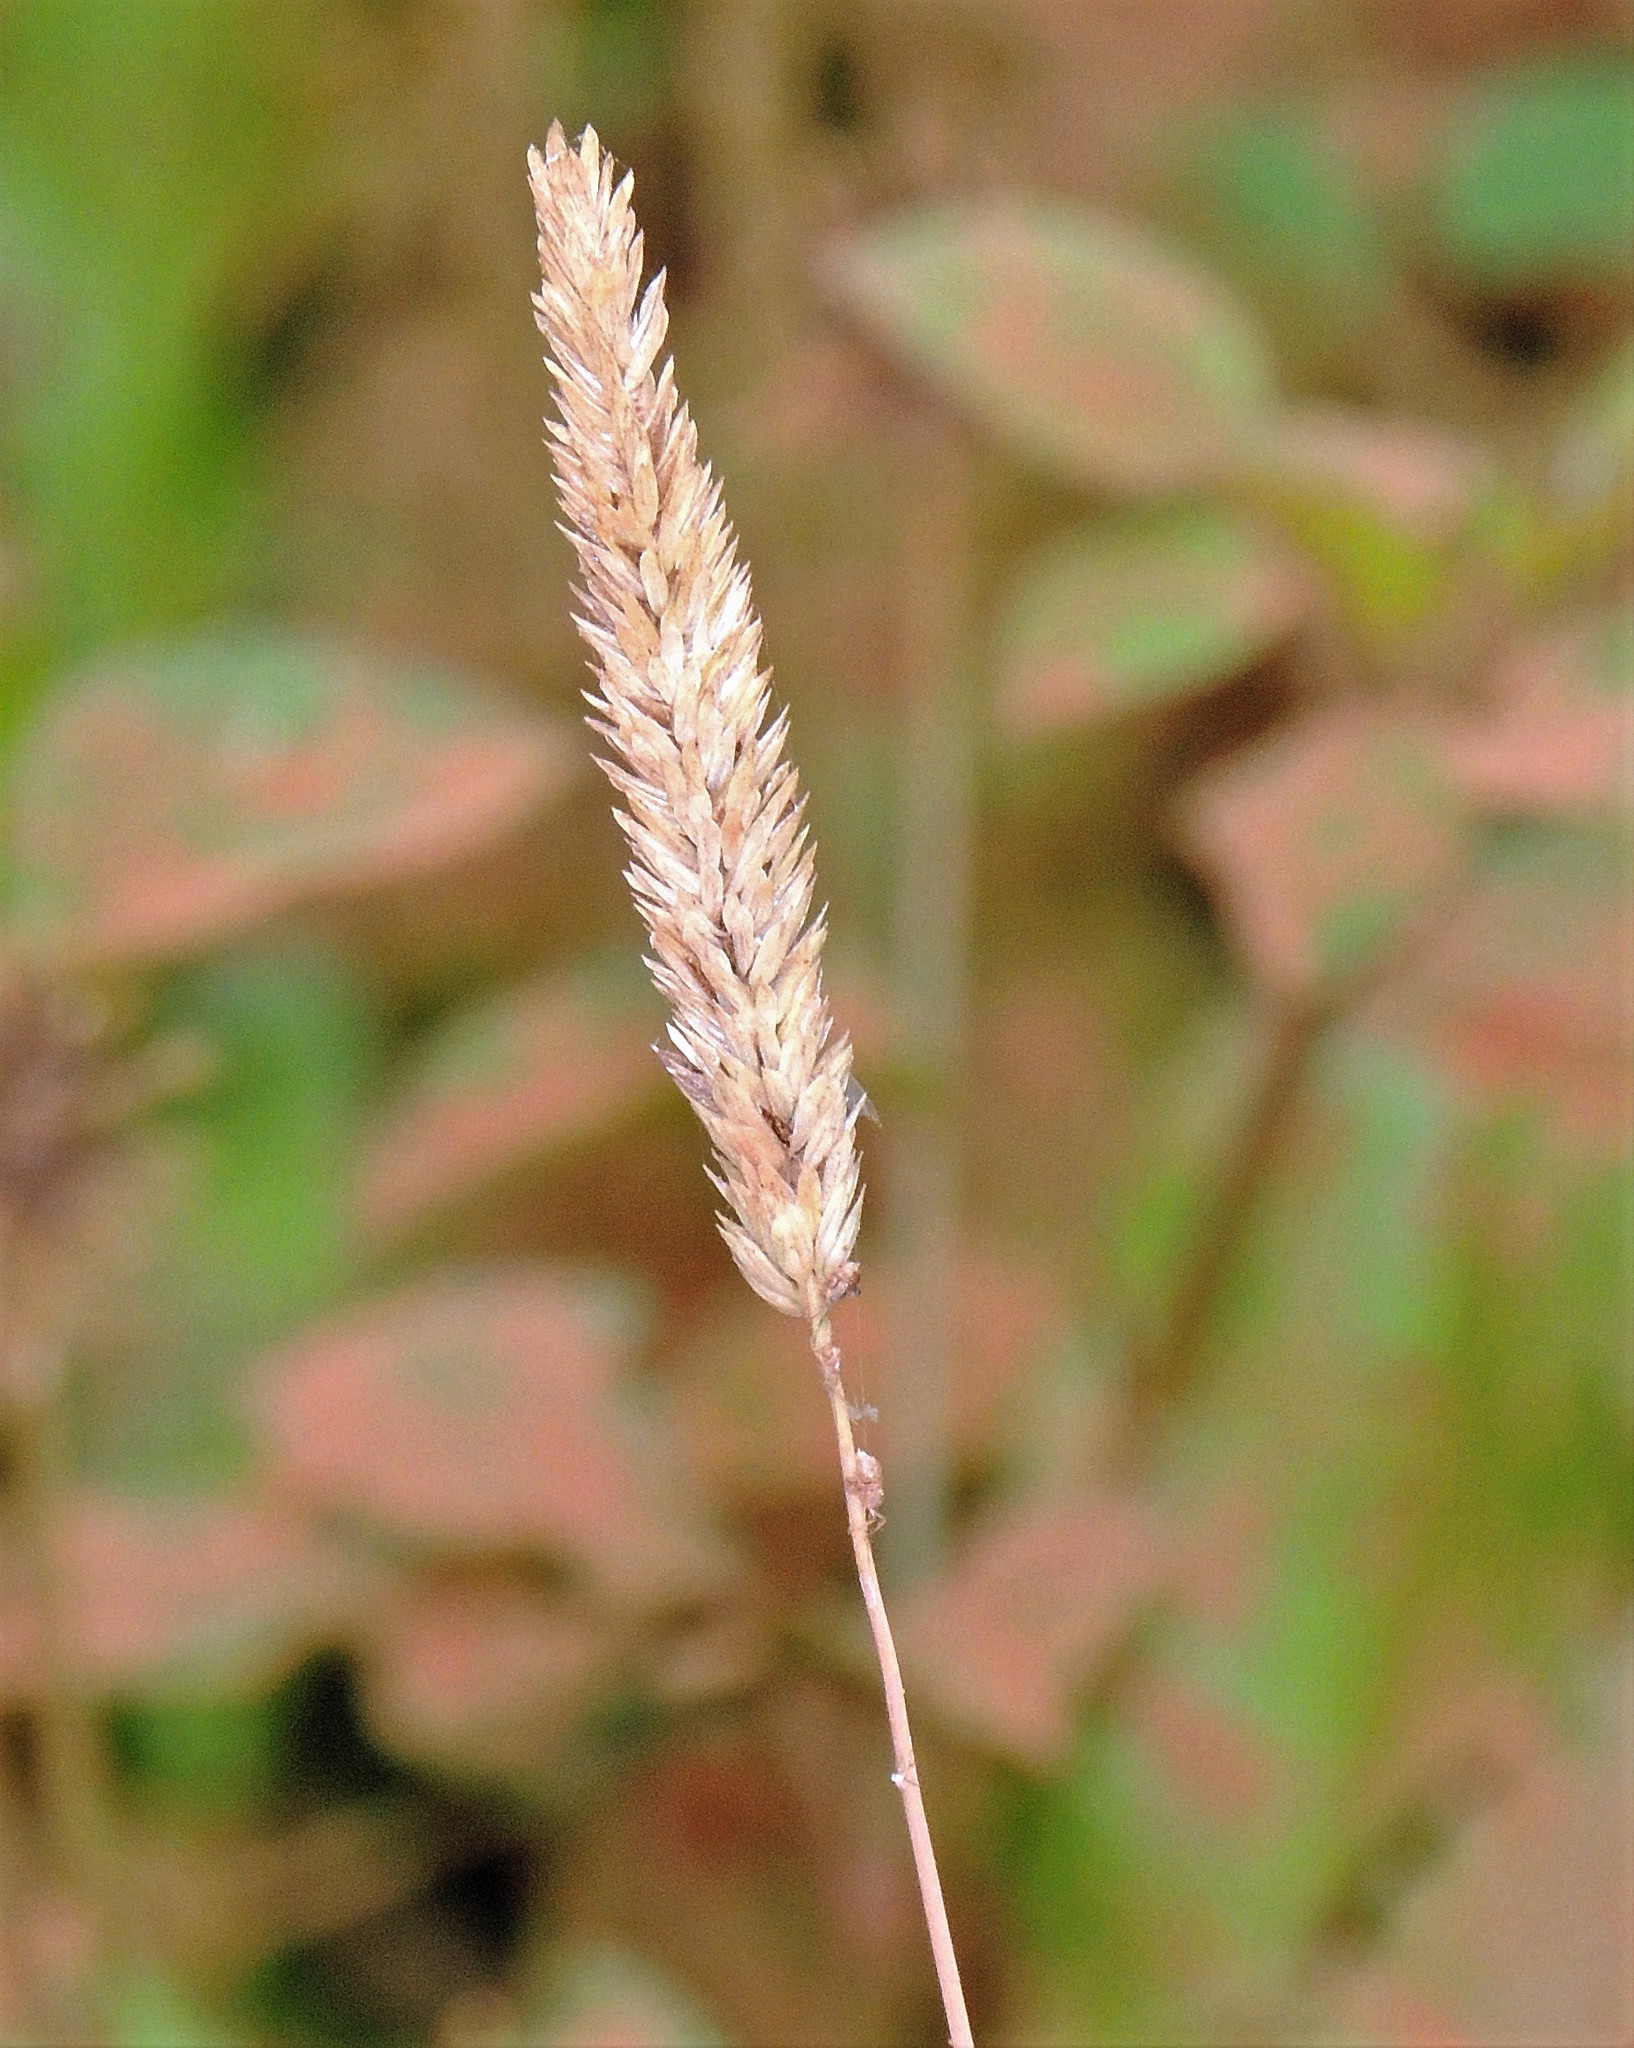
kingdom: Plantae
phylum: Tracheophyta
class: Liliopsida
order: Poales
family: Poaceae
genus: Phalaris
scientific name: Phalaris angusta
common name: Narrow canary grass
